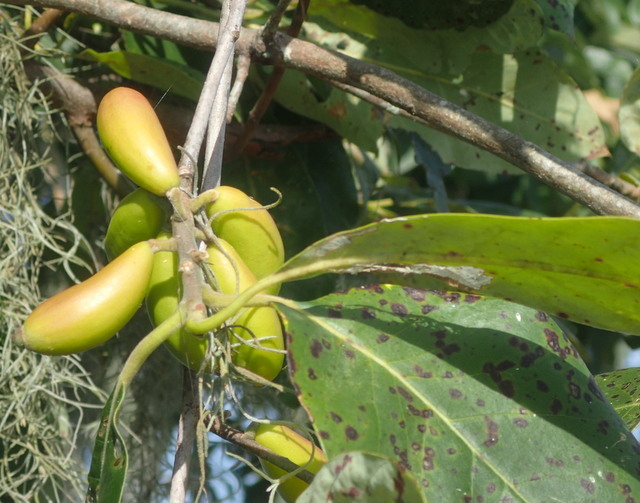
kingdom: Plantae
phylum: Tracheophyta
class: Magnoliopsida
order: Cornales
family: Nyssaceae
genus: Nyssa
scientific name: Nyssa ogeche
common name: Ogeechee tupelo
